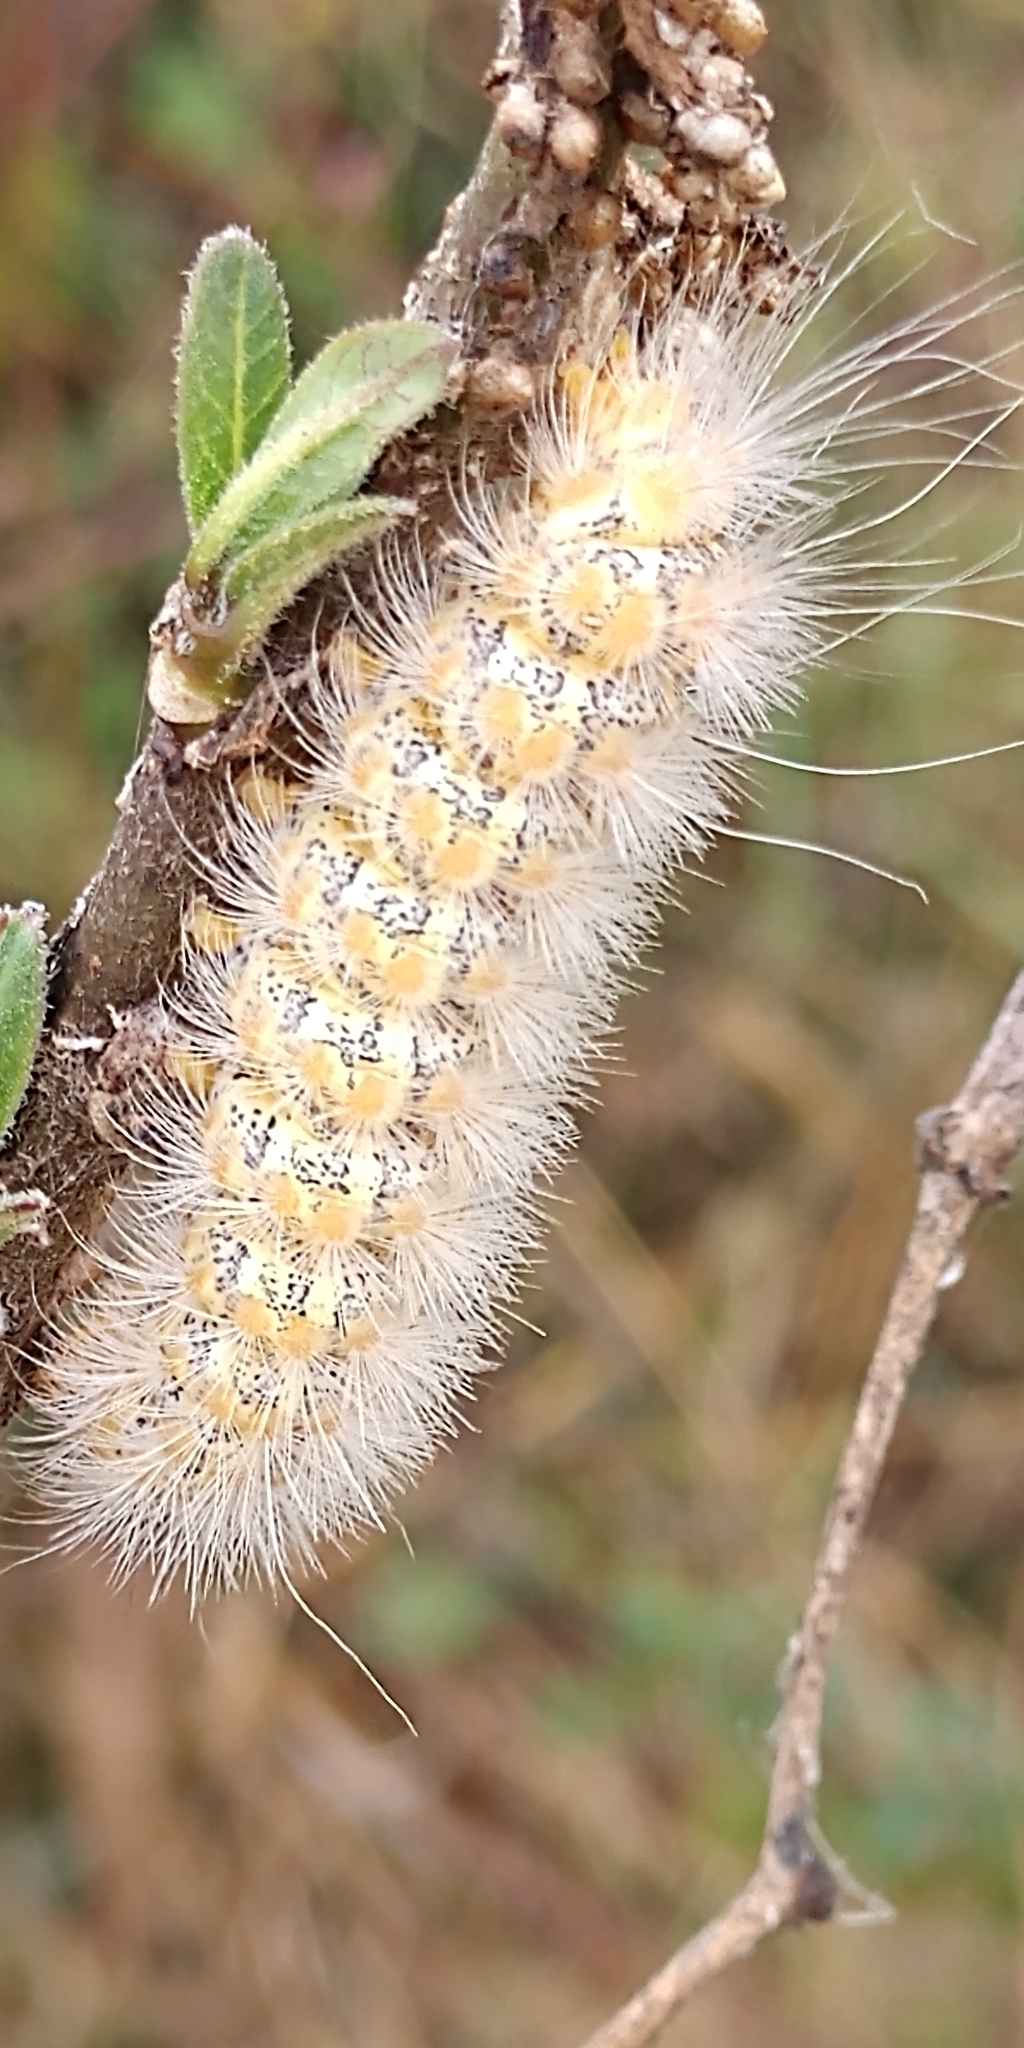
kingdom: Animalia
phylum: Arthropoda
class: Insecta
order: Lepidoptera
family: Erebidae
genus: Estigmene
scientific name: Estigmene acrea
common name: Salt marsh moth
